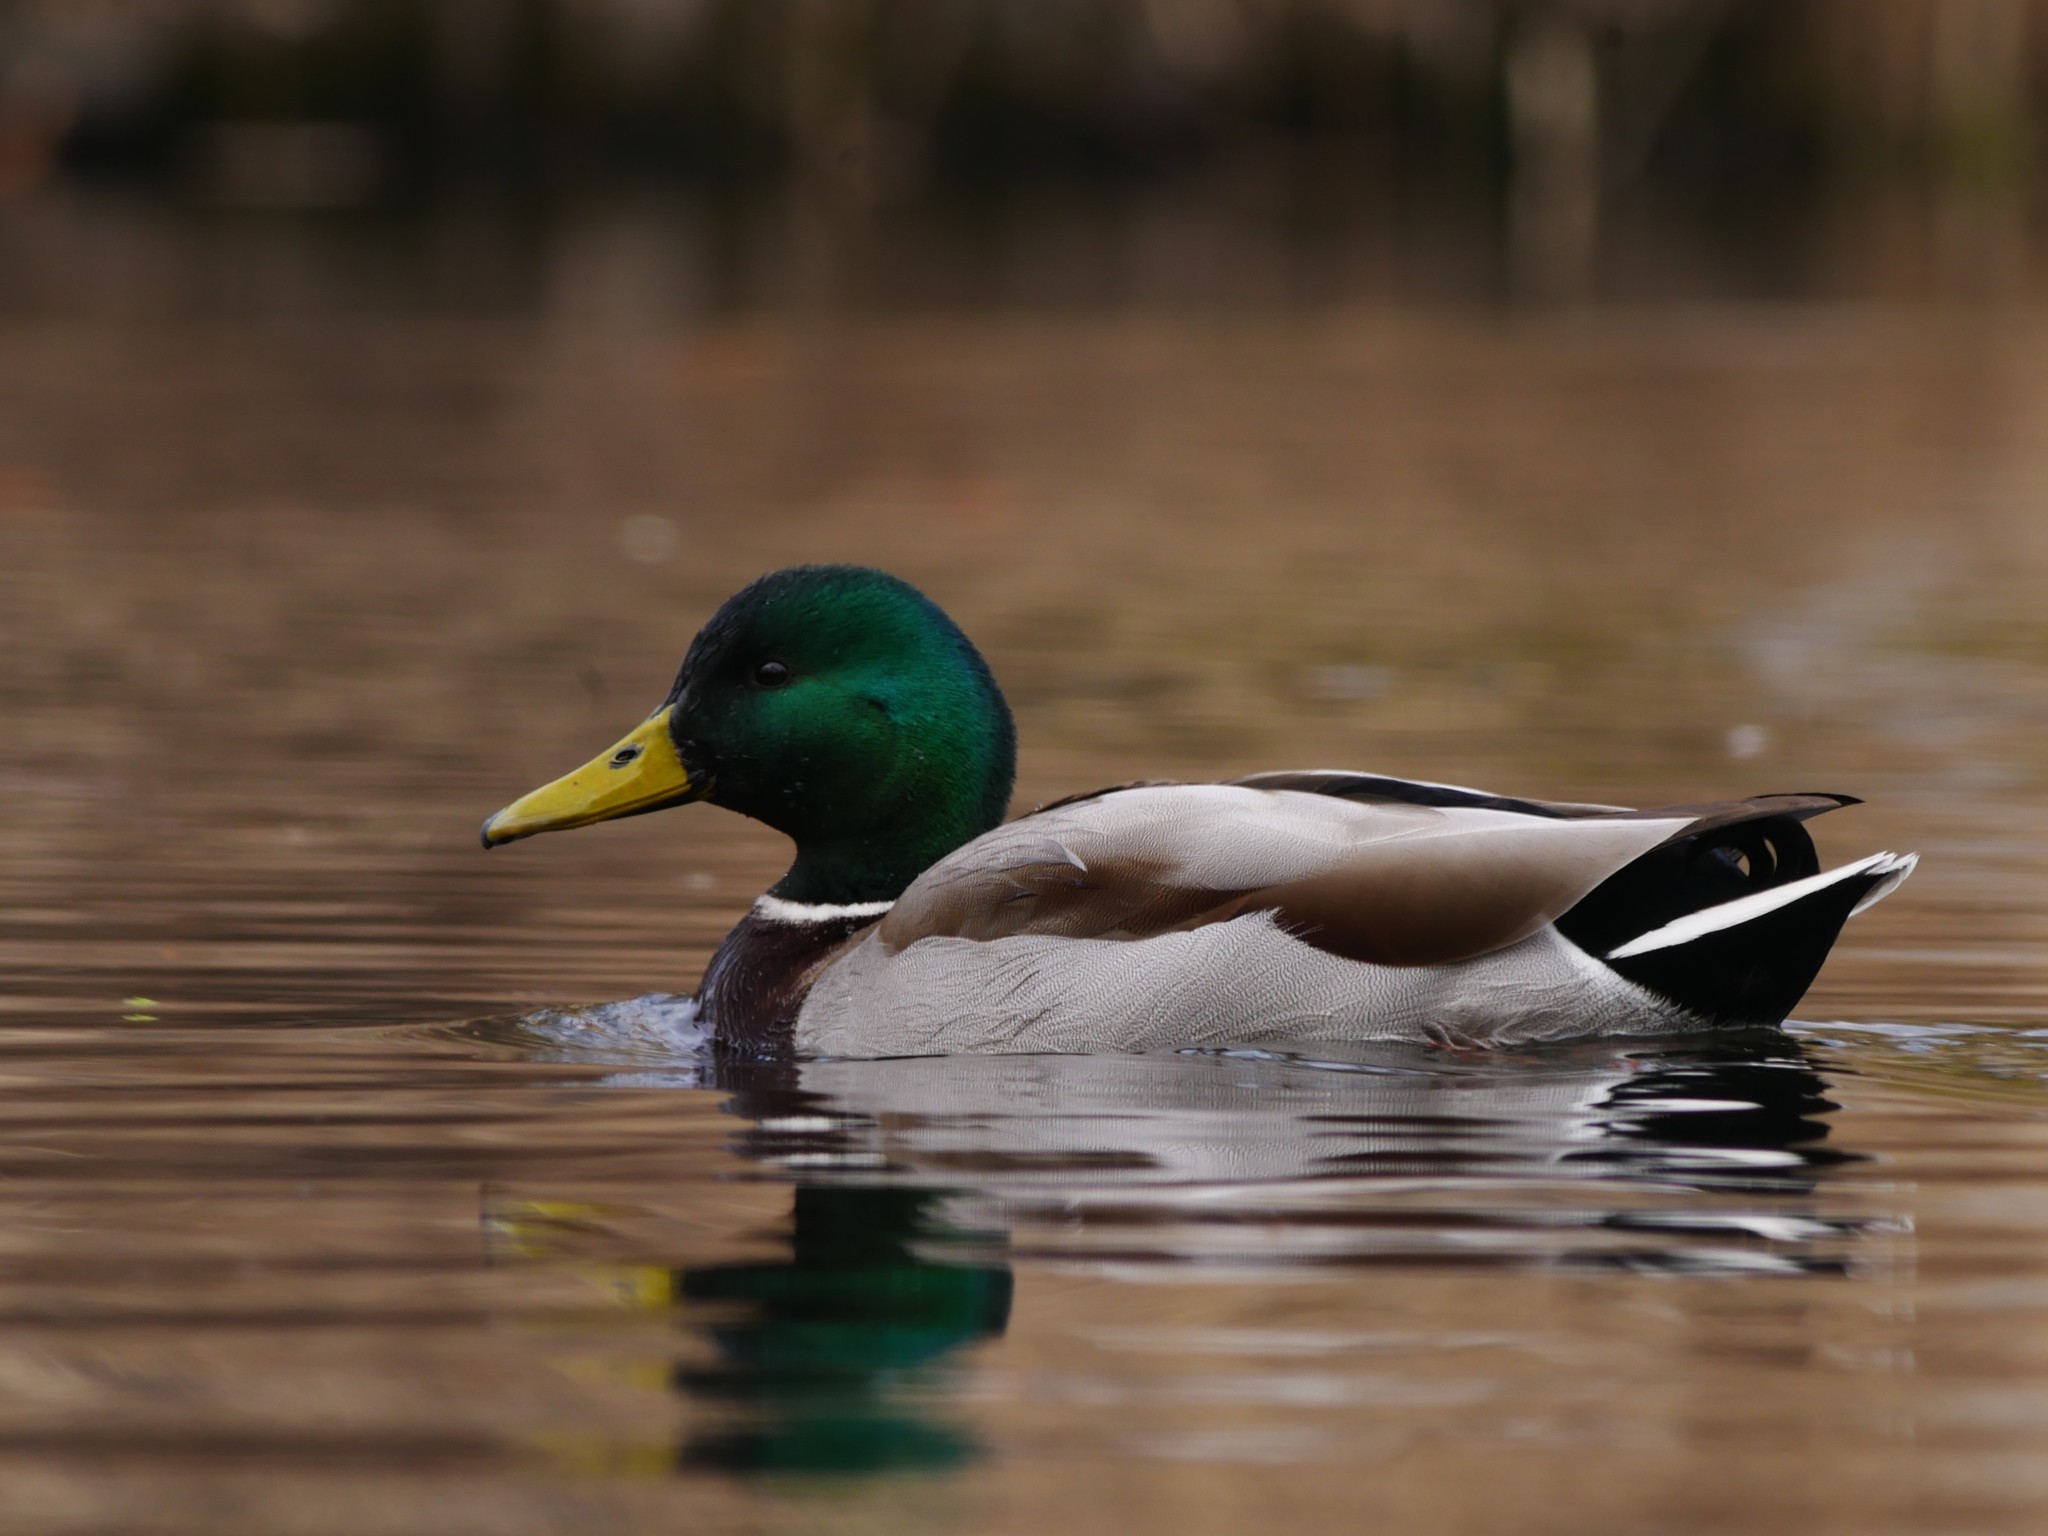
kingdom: Animalia
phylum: Chordata
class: Aves
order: Anseriformes
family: Anatidae
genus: Anas
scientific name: Anas platyrhynchos
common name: Mallard
